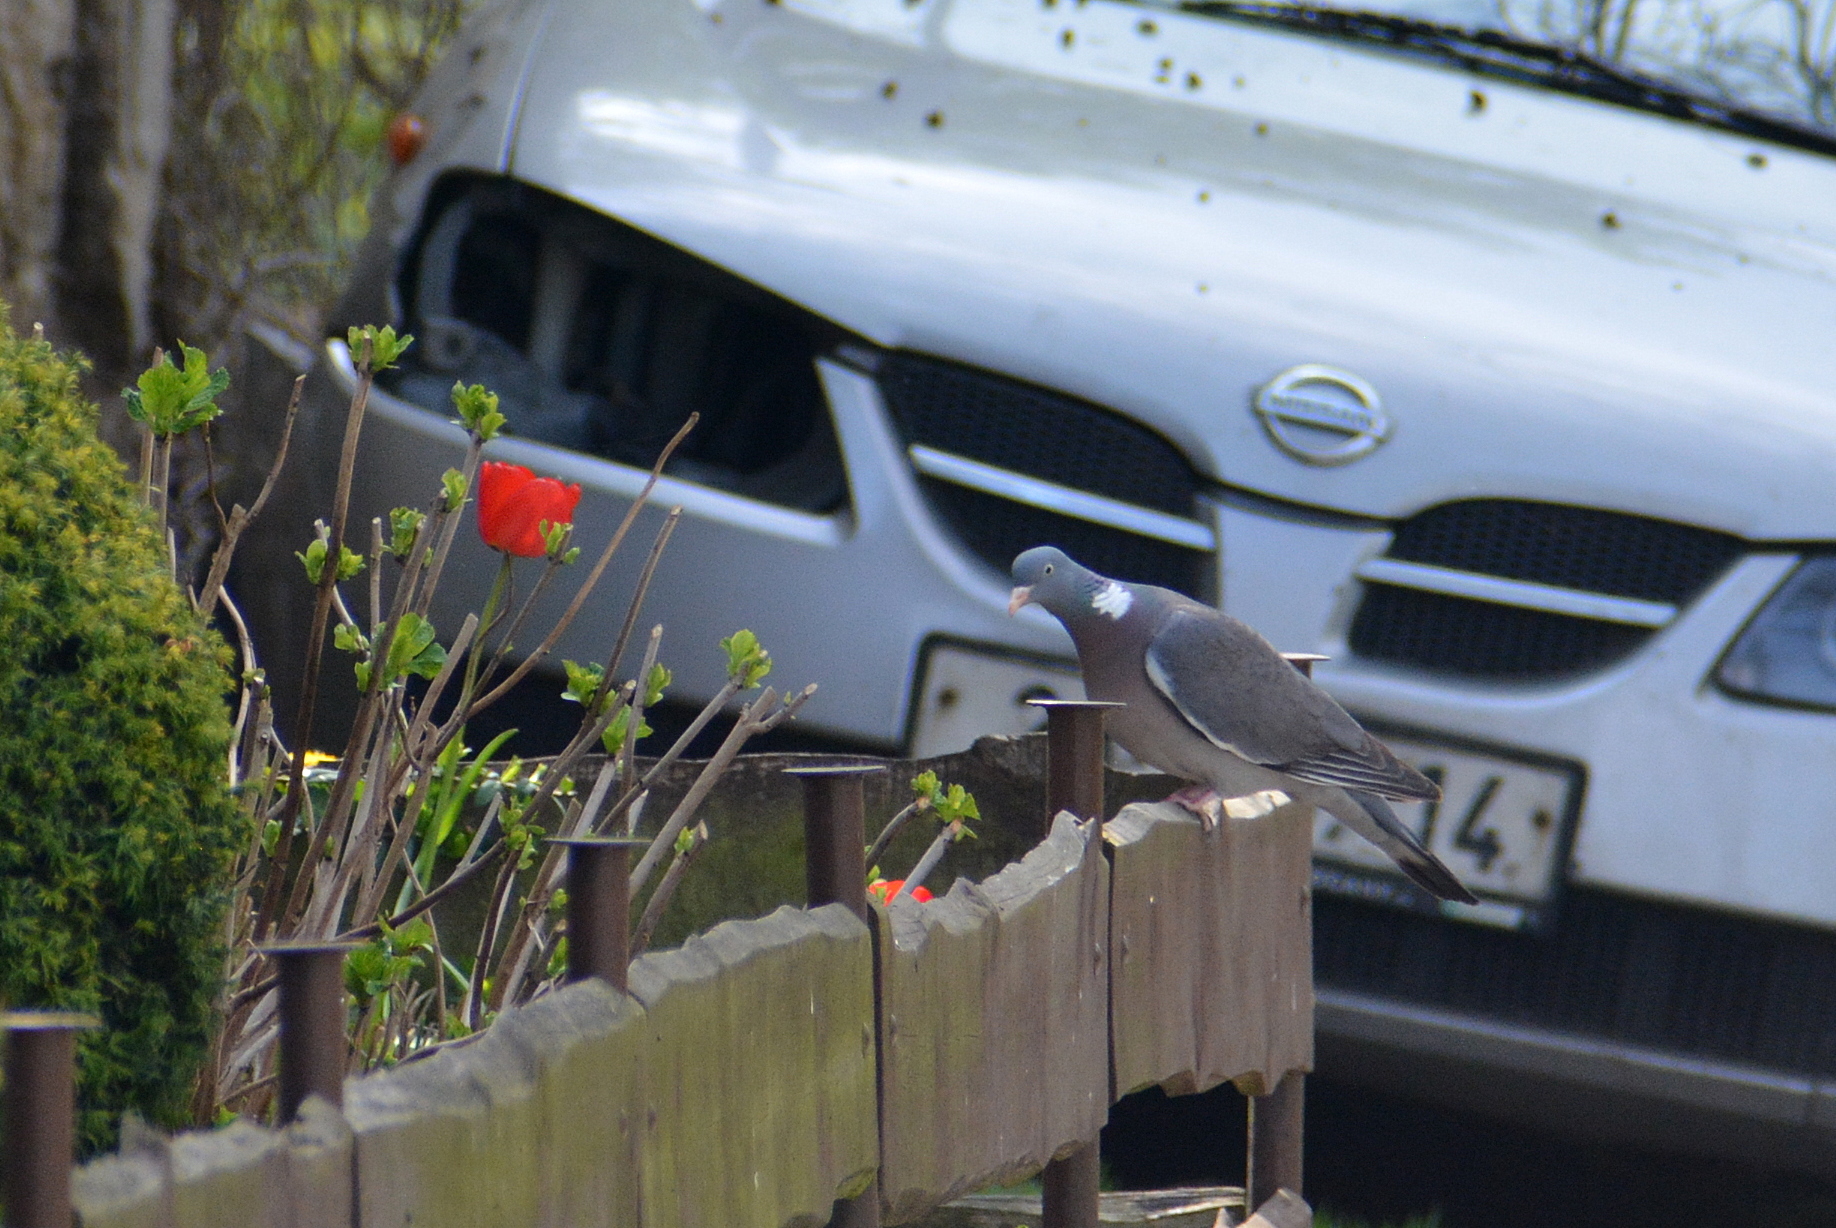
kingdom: Animalia
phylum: Chordata
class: Aves
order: Columbiformes
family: Columbidae
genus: Columba
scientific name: Columba palumbus
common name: Common wood pigeon
